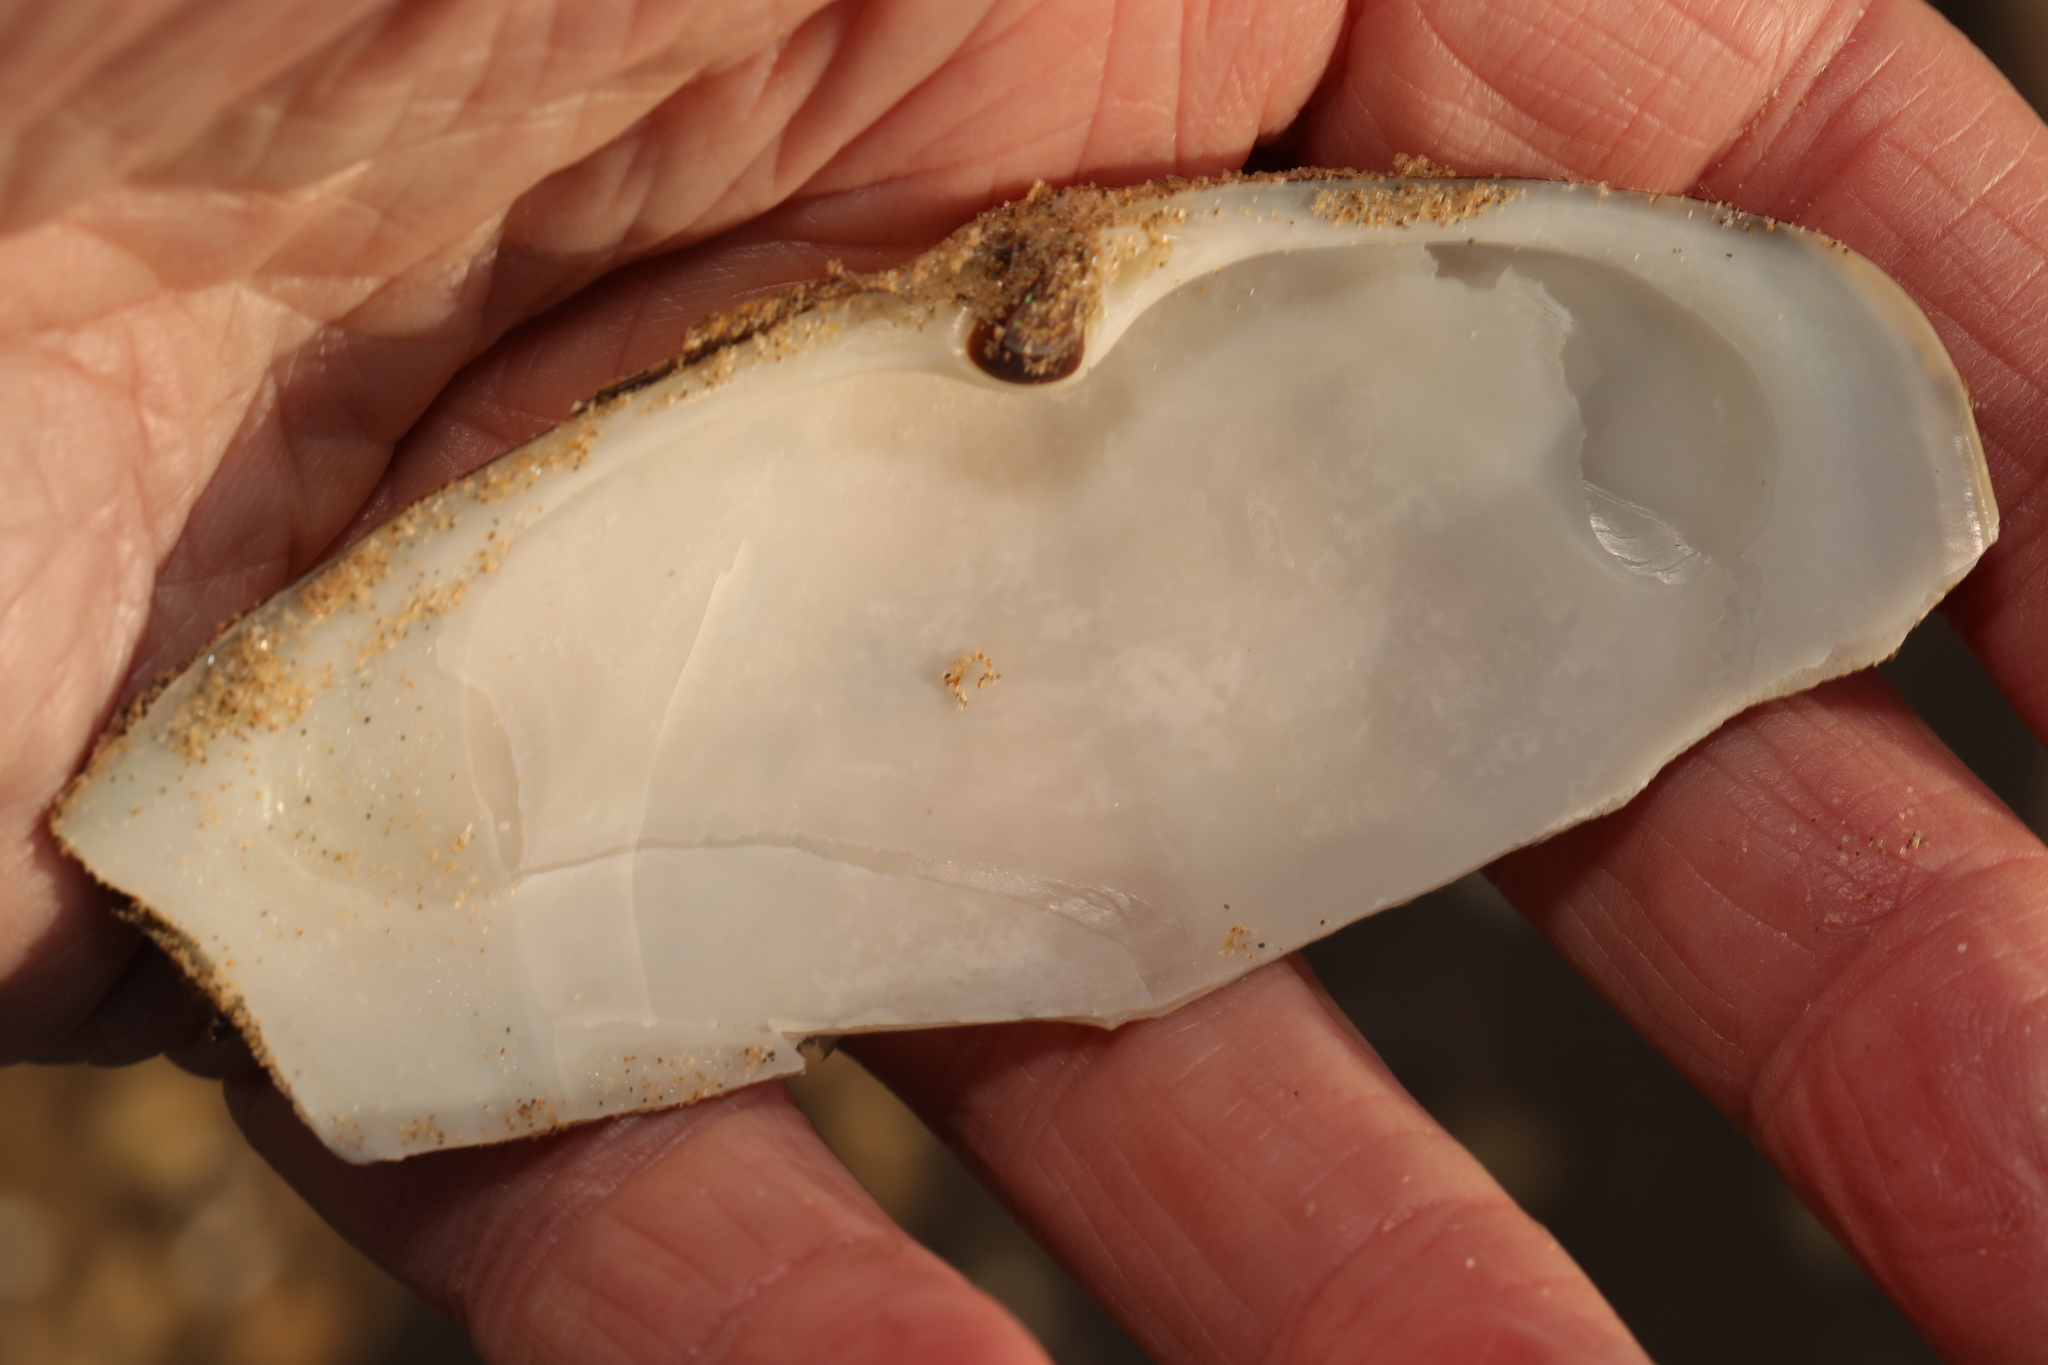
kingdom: Animalia
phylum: Mollusca
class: Bivalvia
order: Venerida
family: Mactridae
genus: Lutraria
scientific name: Lutraria lutraria
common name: Common otter shell
